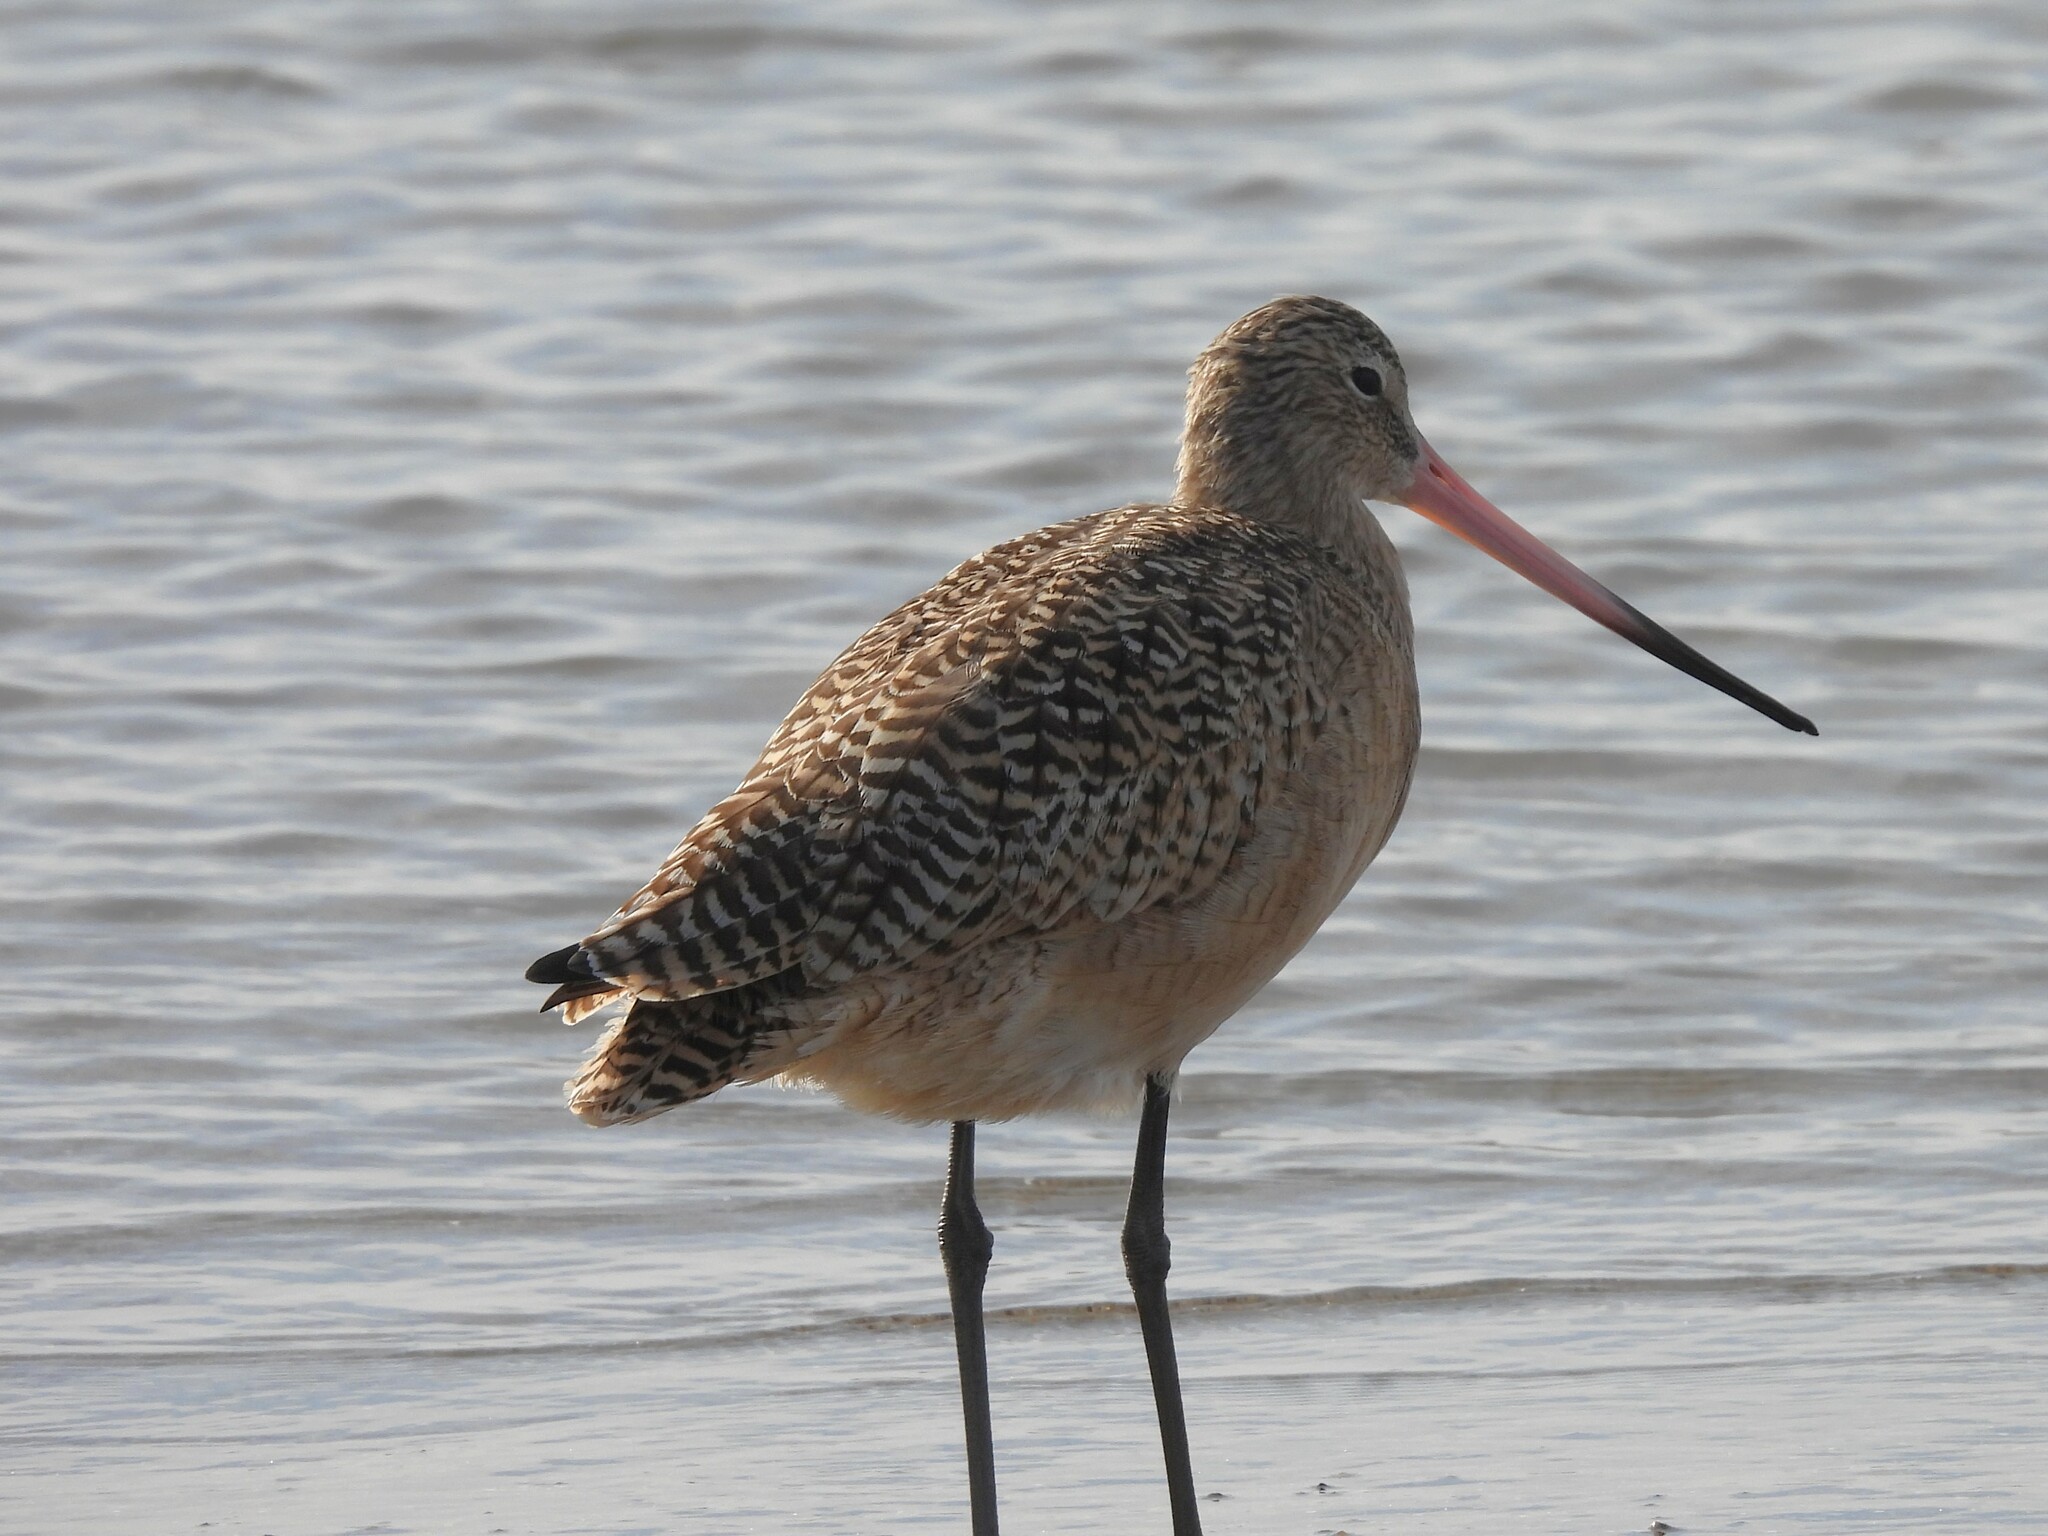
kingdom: Animalia
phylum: Chordata
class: Aves
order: Charadriiformes
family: Scolopacidae
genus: Limosa
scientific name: Limosa fedoa
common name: Marbled godwit
